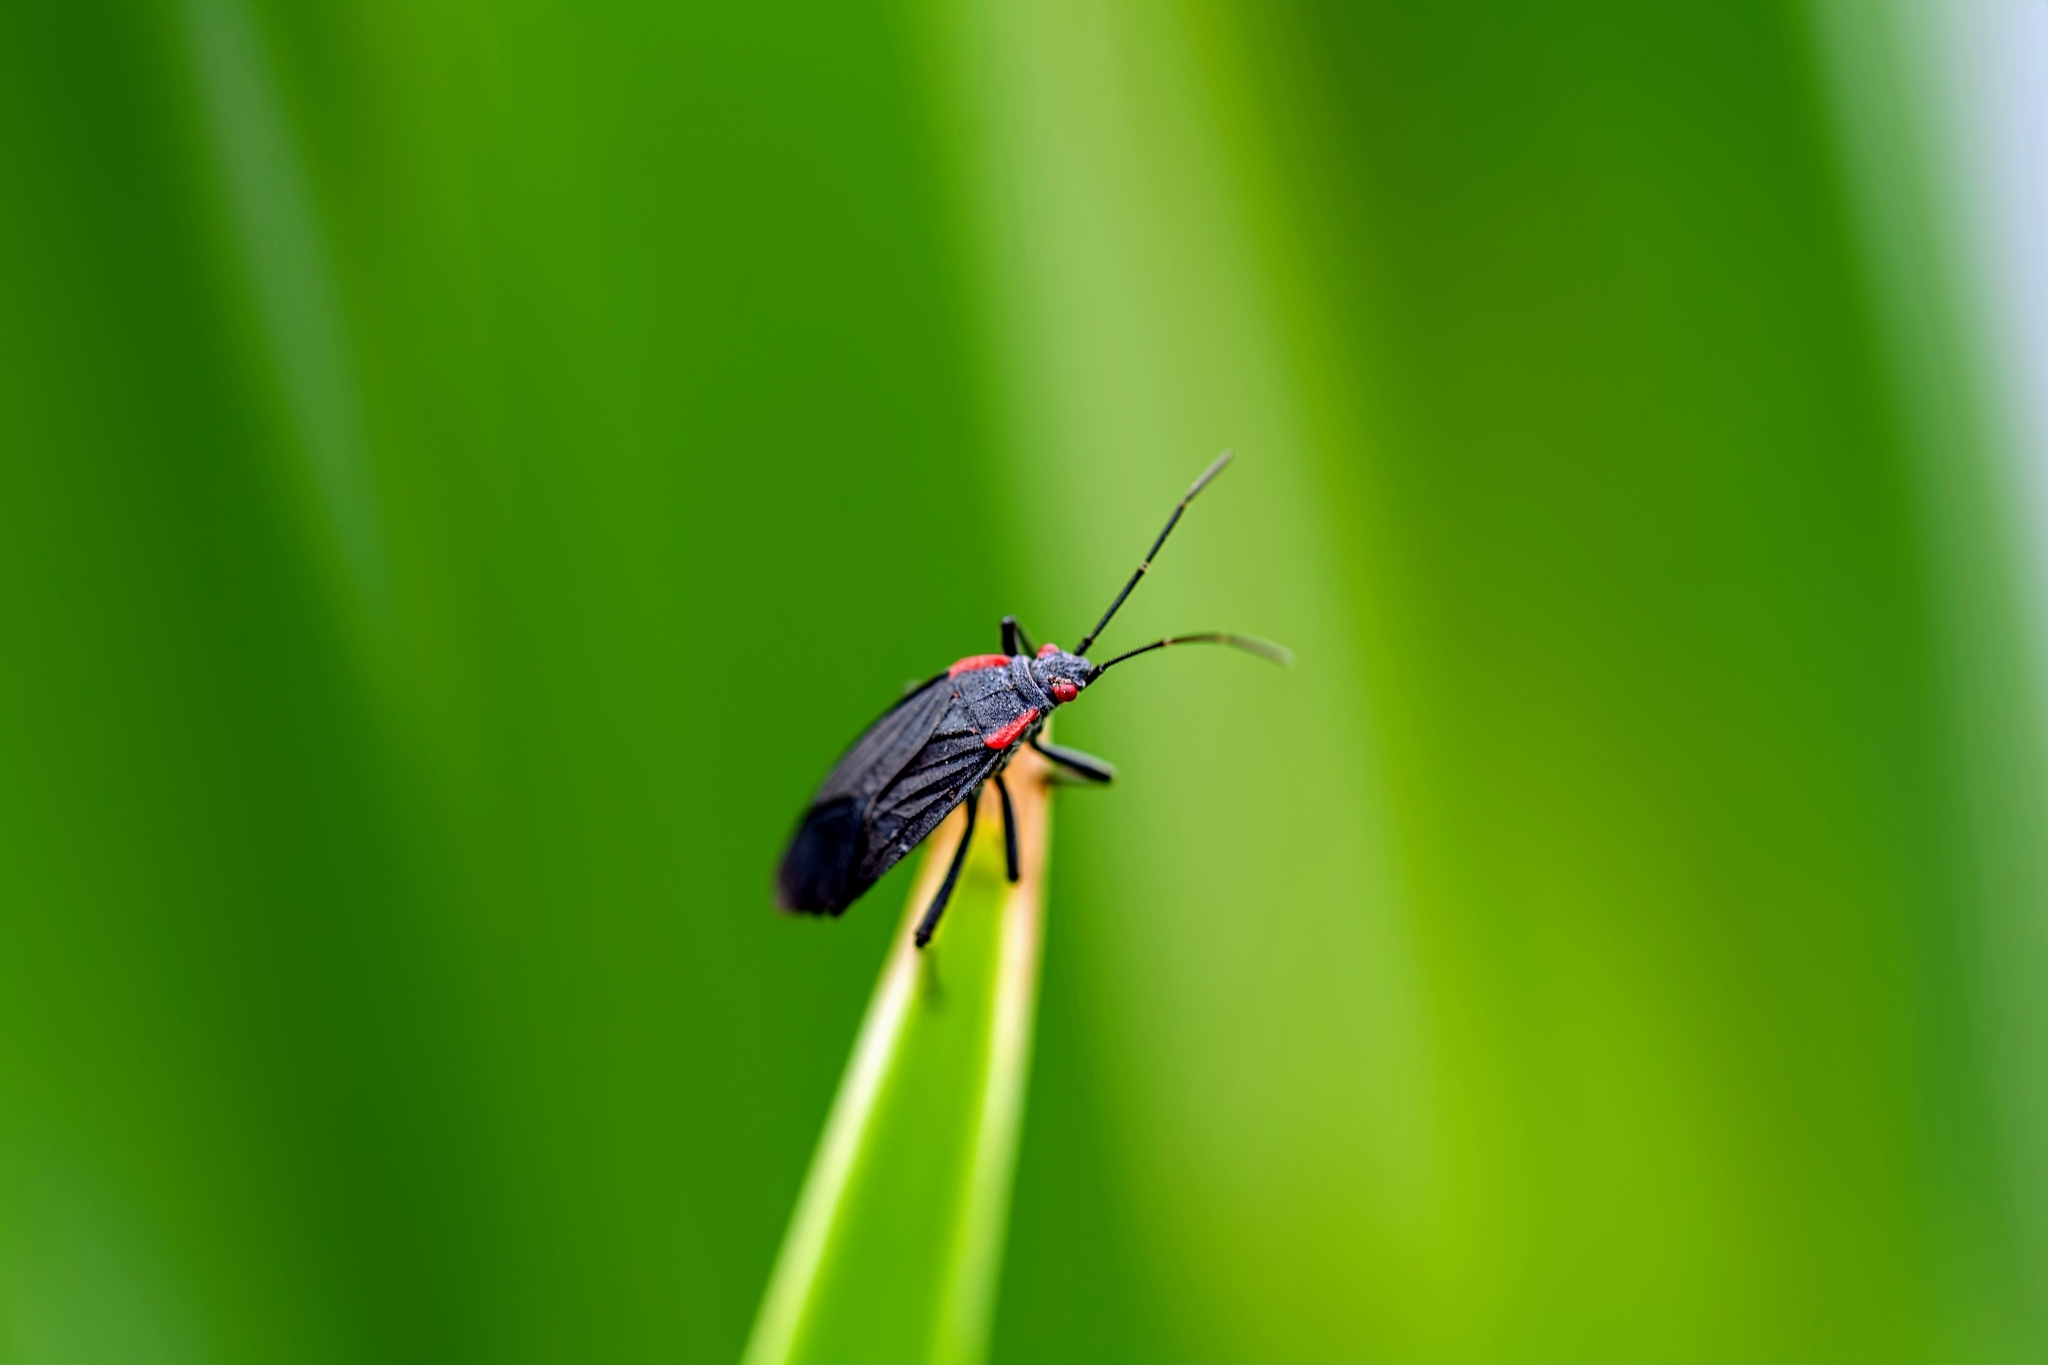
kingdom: Animalia
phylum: Arthropoda
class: Insecta
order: Hemiptera
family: Rhopalidae
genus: Jadera
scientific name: Jadera haematoloma
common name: Red-shouldered bug
